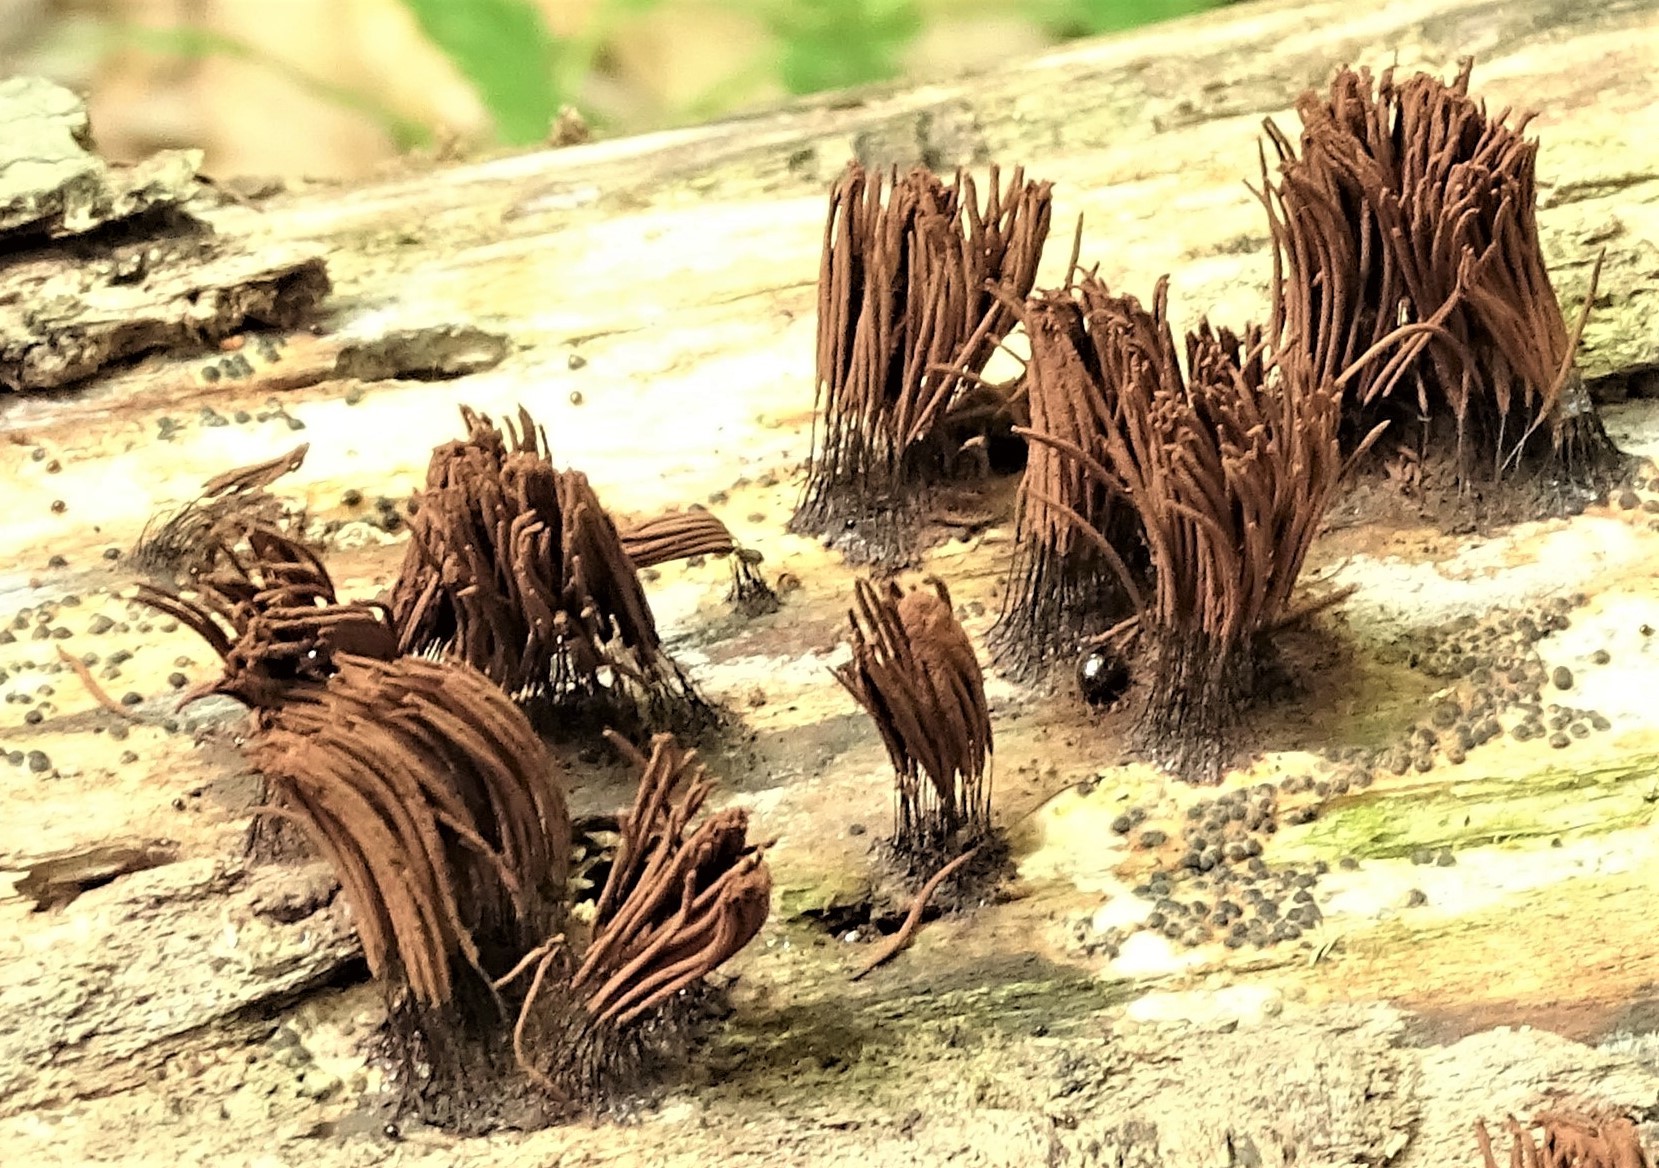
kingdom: Protozoa
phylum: Mycetozoa
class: Myxomycetes
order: Stemonitidales
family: Stemonitidaceae
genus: Stemonitis
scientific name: Stemonitis splendens
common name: Chocolate tube slime
